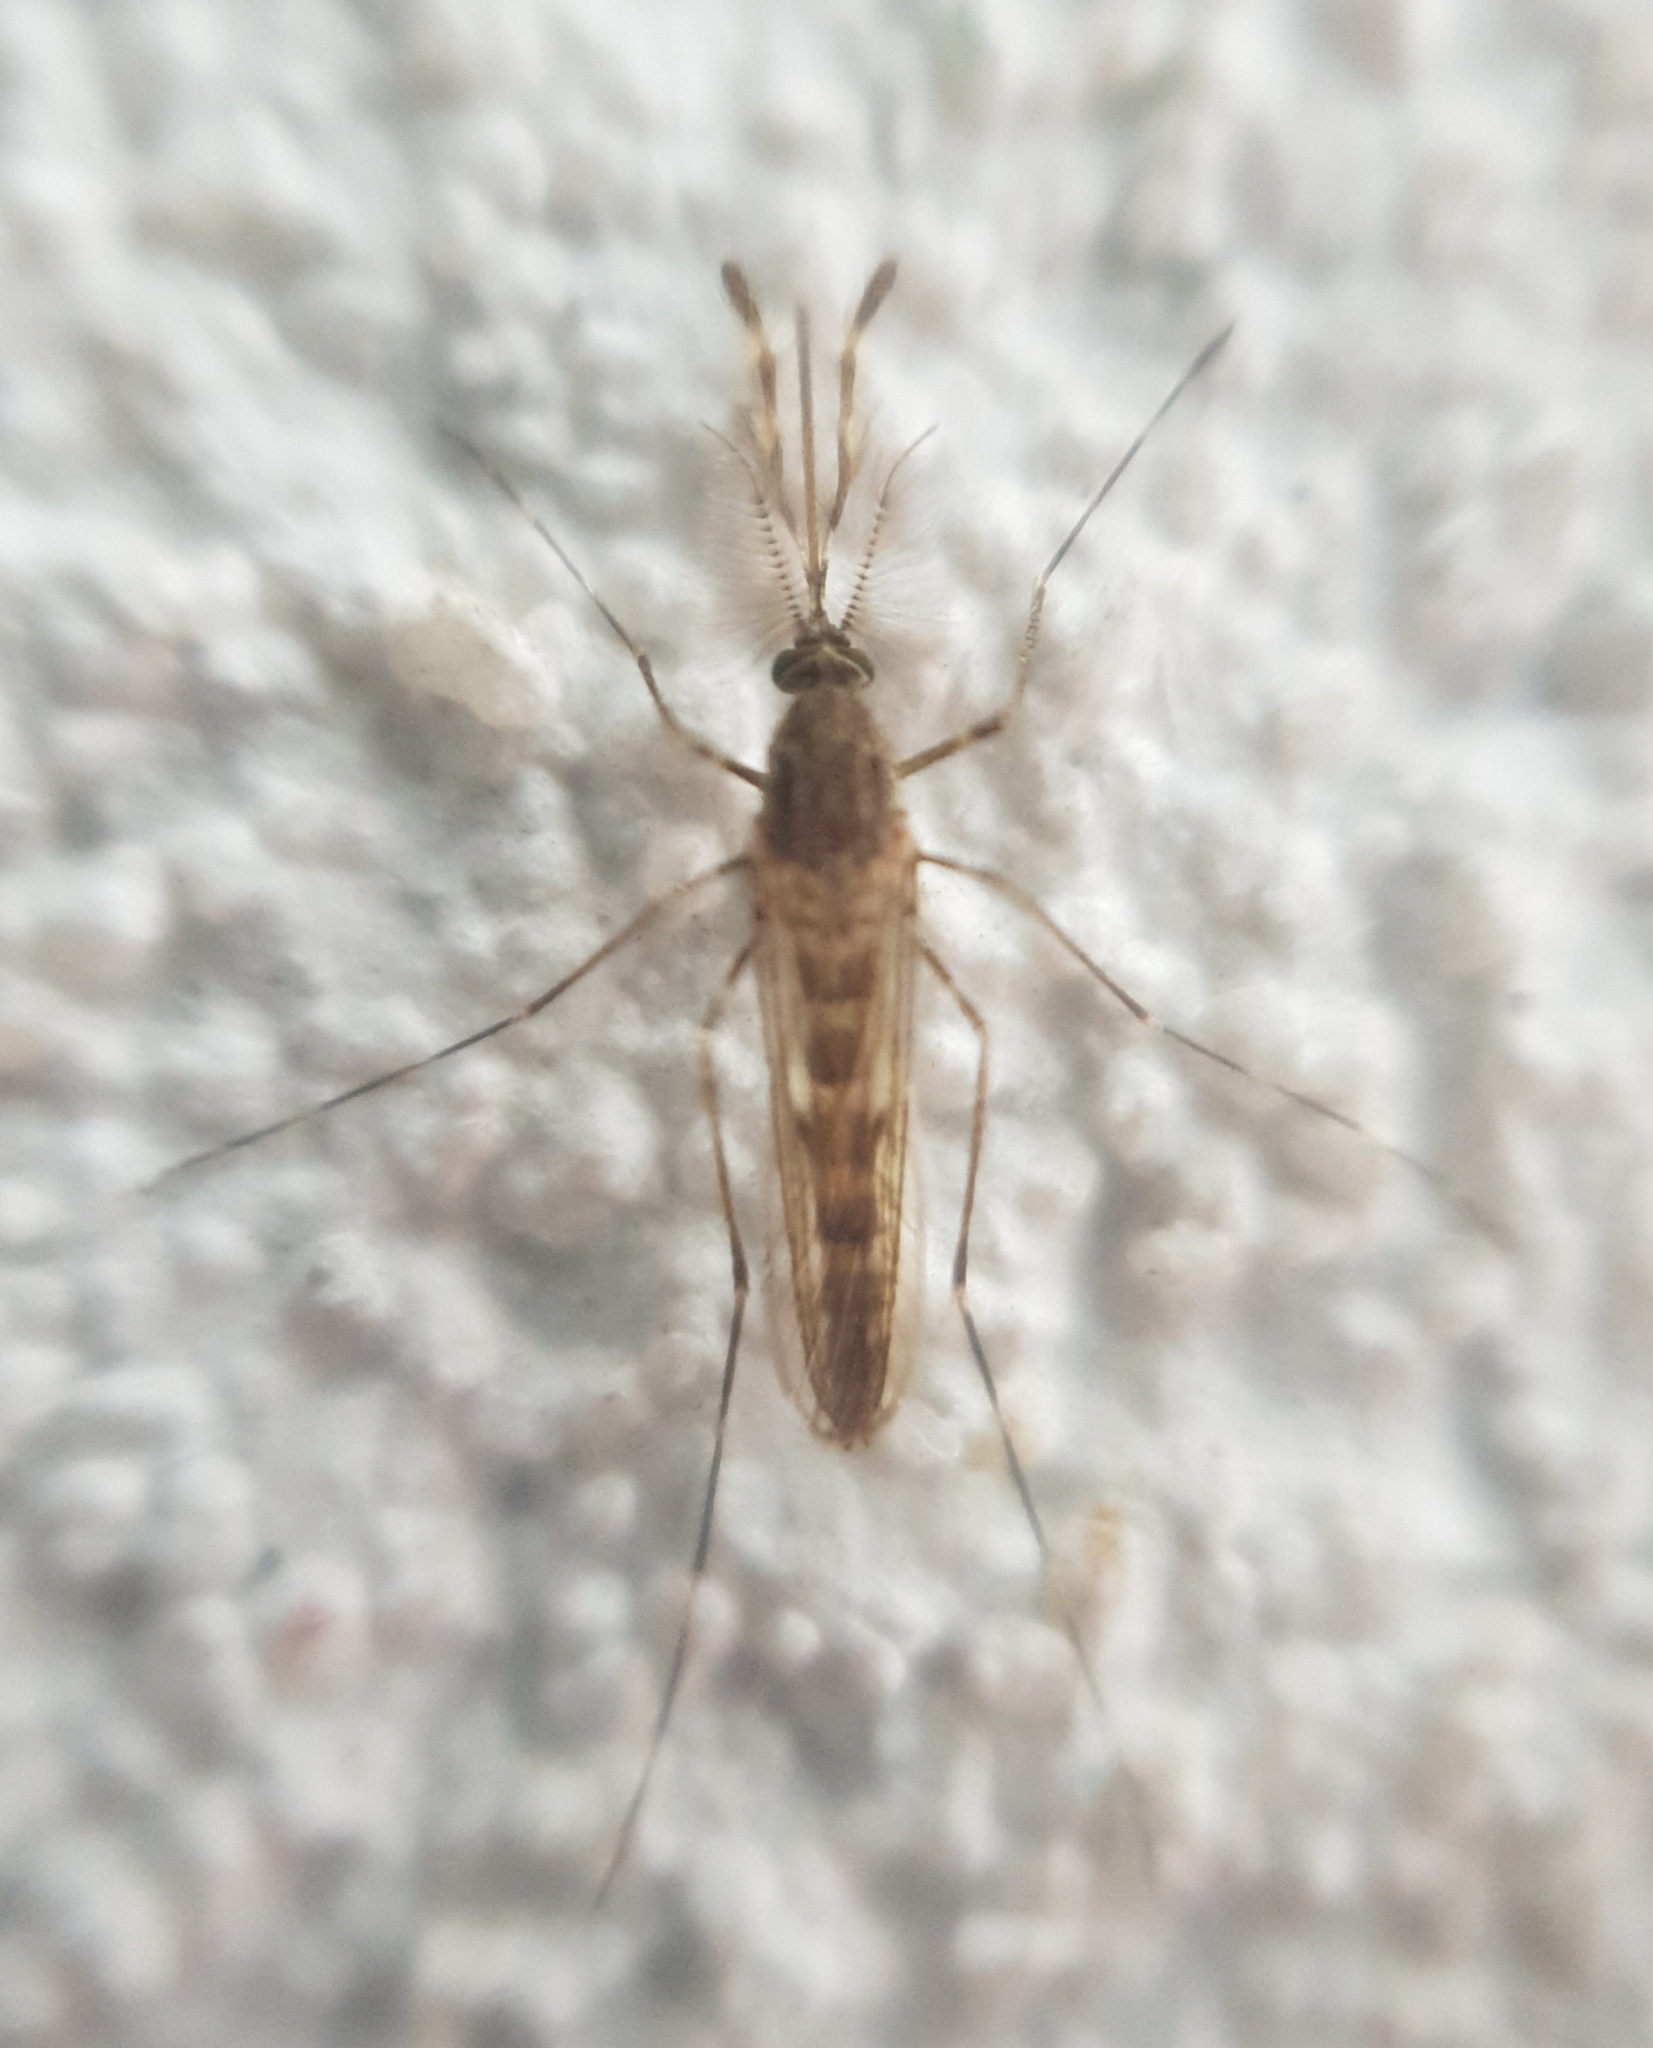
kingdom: Animalia
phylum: Arthropoda
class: Insecta
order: Diptera
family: Culicidae
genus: Culiseta
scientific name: Culiseta annulata
